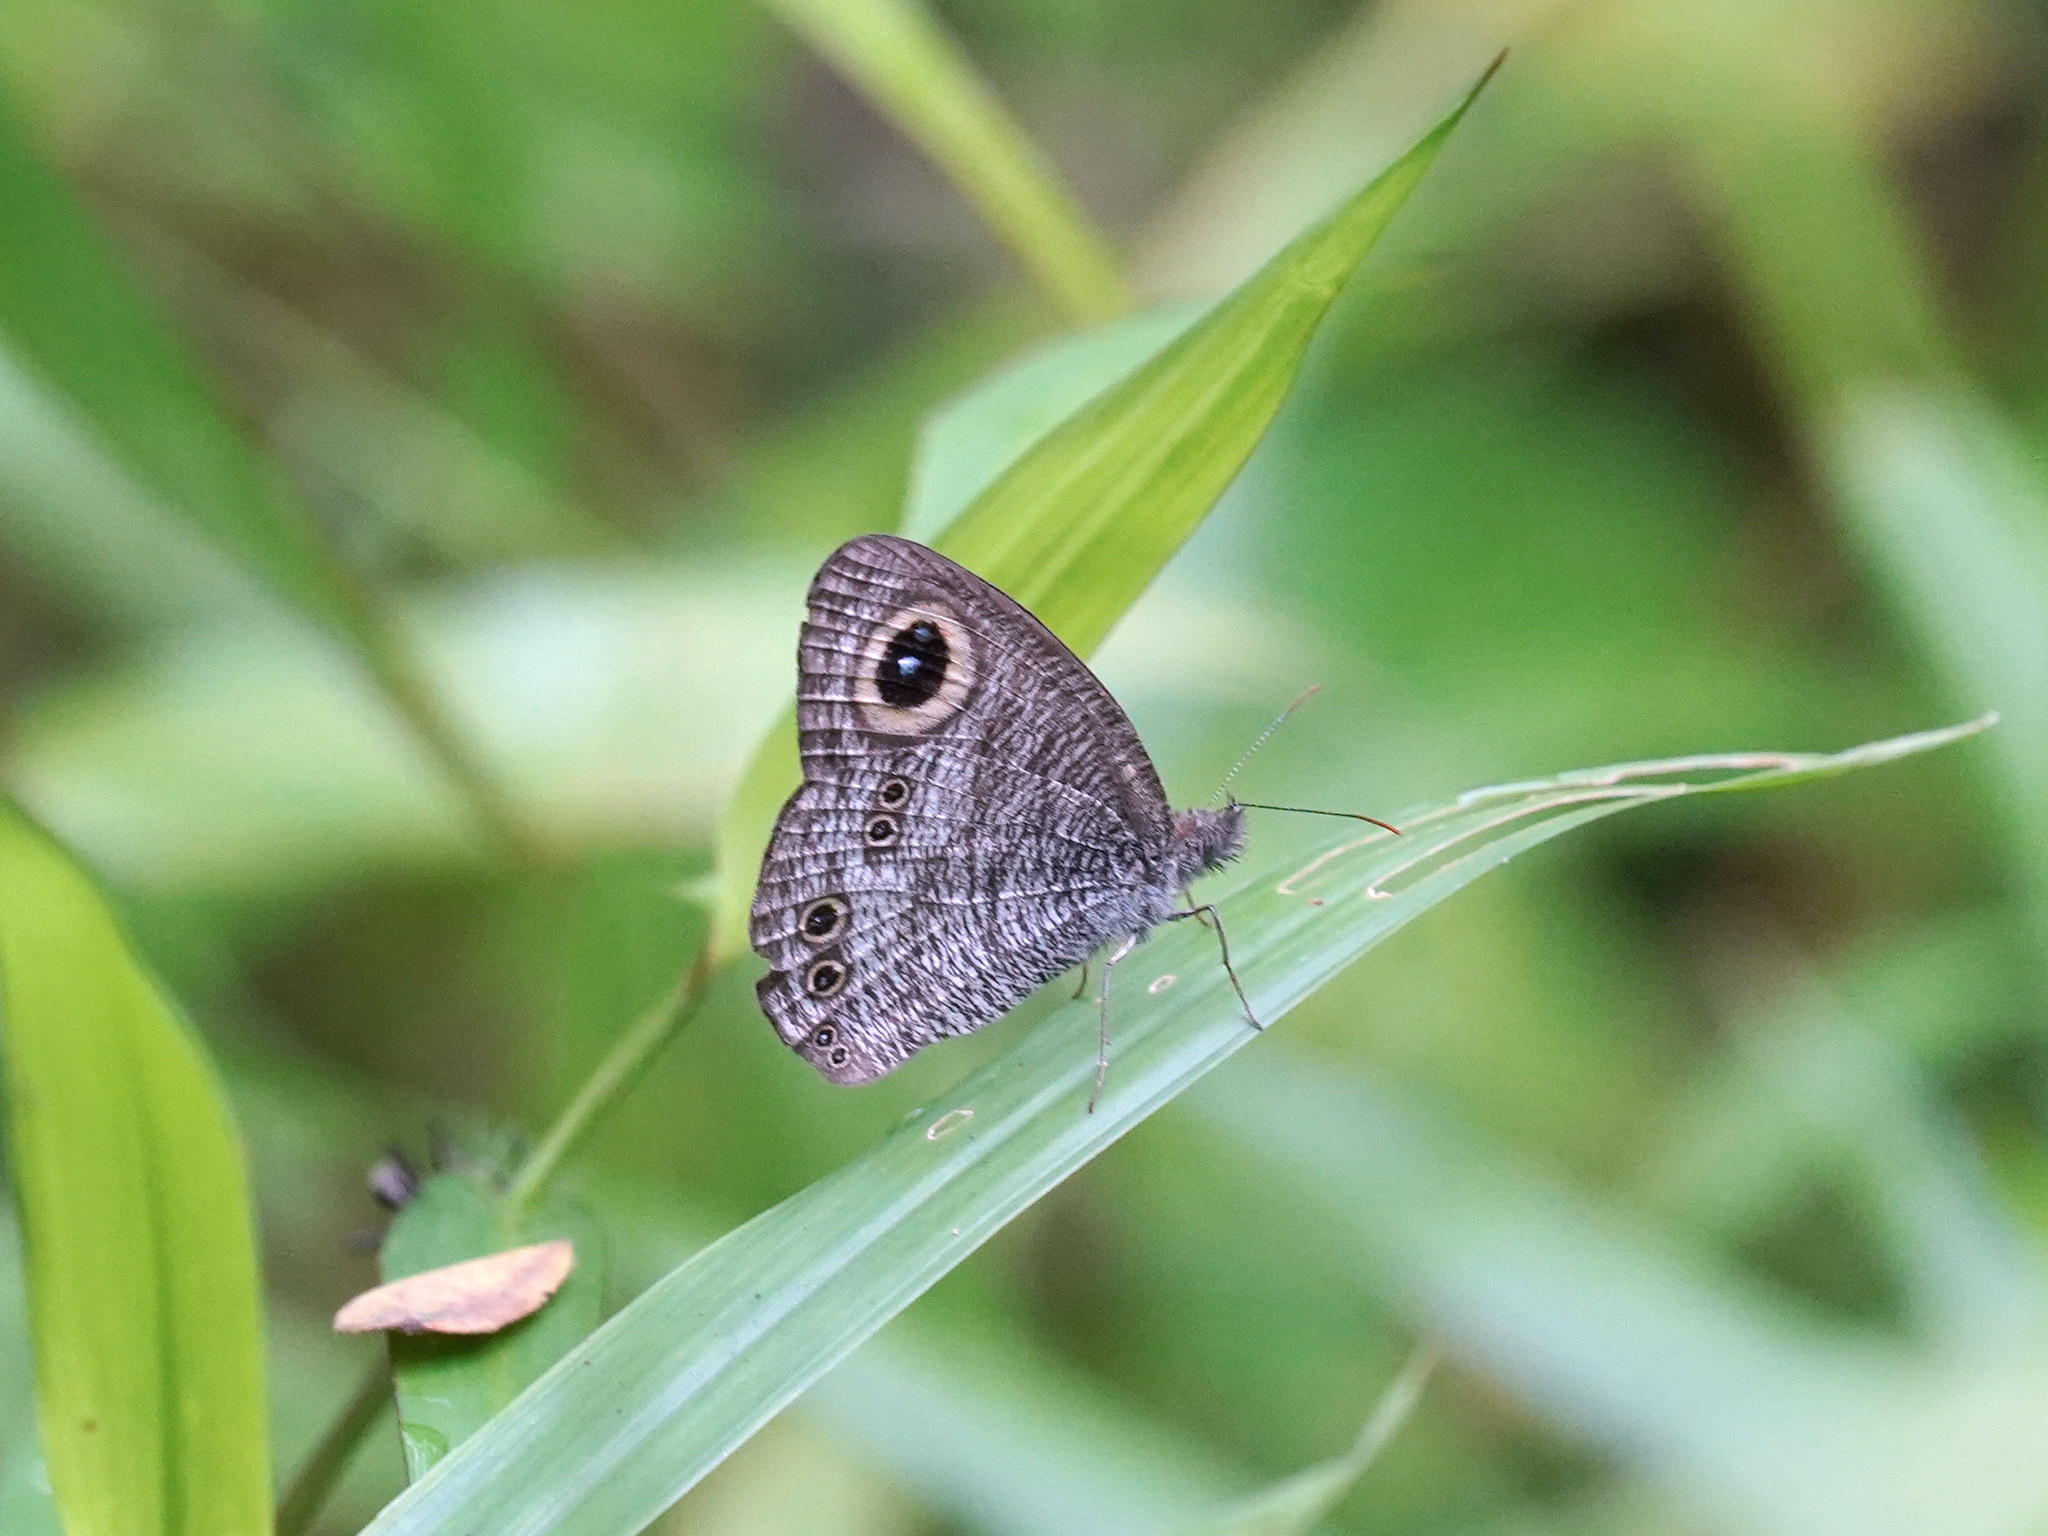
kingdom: Animalia
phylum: Arthropoda
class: Insecta
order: Lepidoptera
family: Nymphalidae
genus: Ypthima
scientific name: Ypthima baldus
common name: Common five-ring
